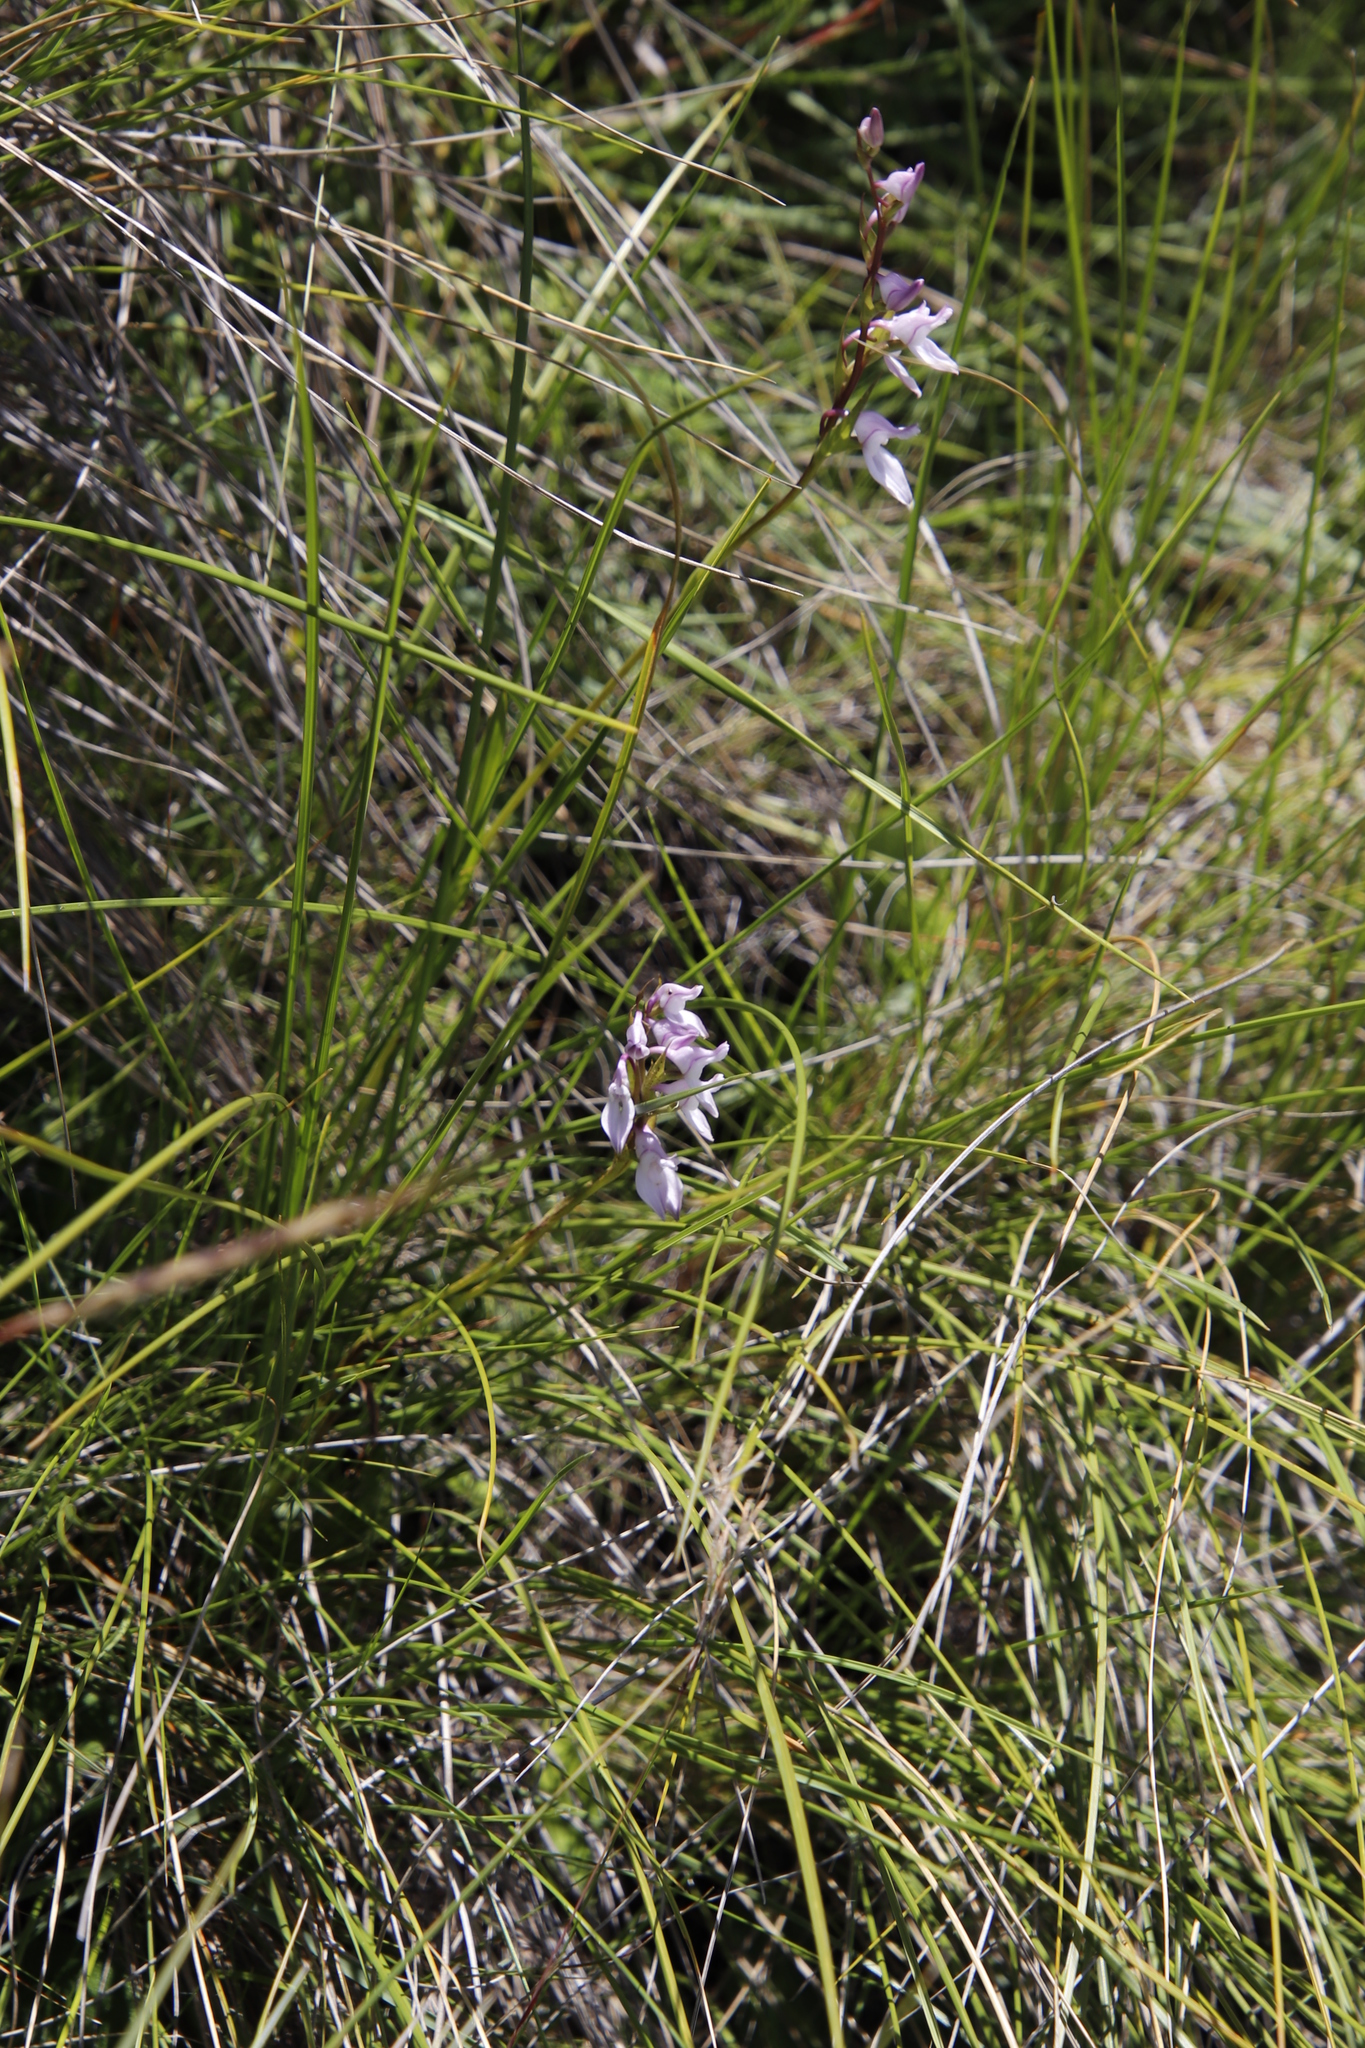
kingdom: Plantae
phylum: Tracheophyta
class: Liliopsida
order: Asparagales
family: Orchidaceae
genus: Brownleea
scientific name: Brownleea recurvata
